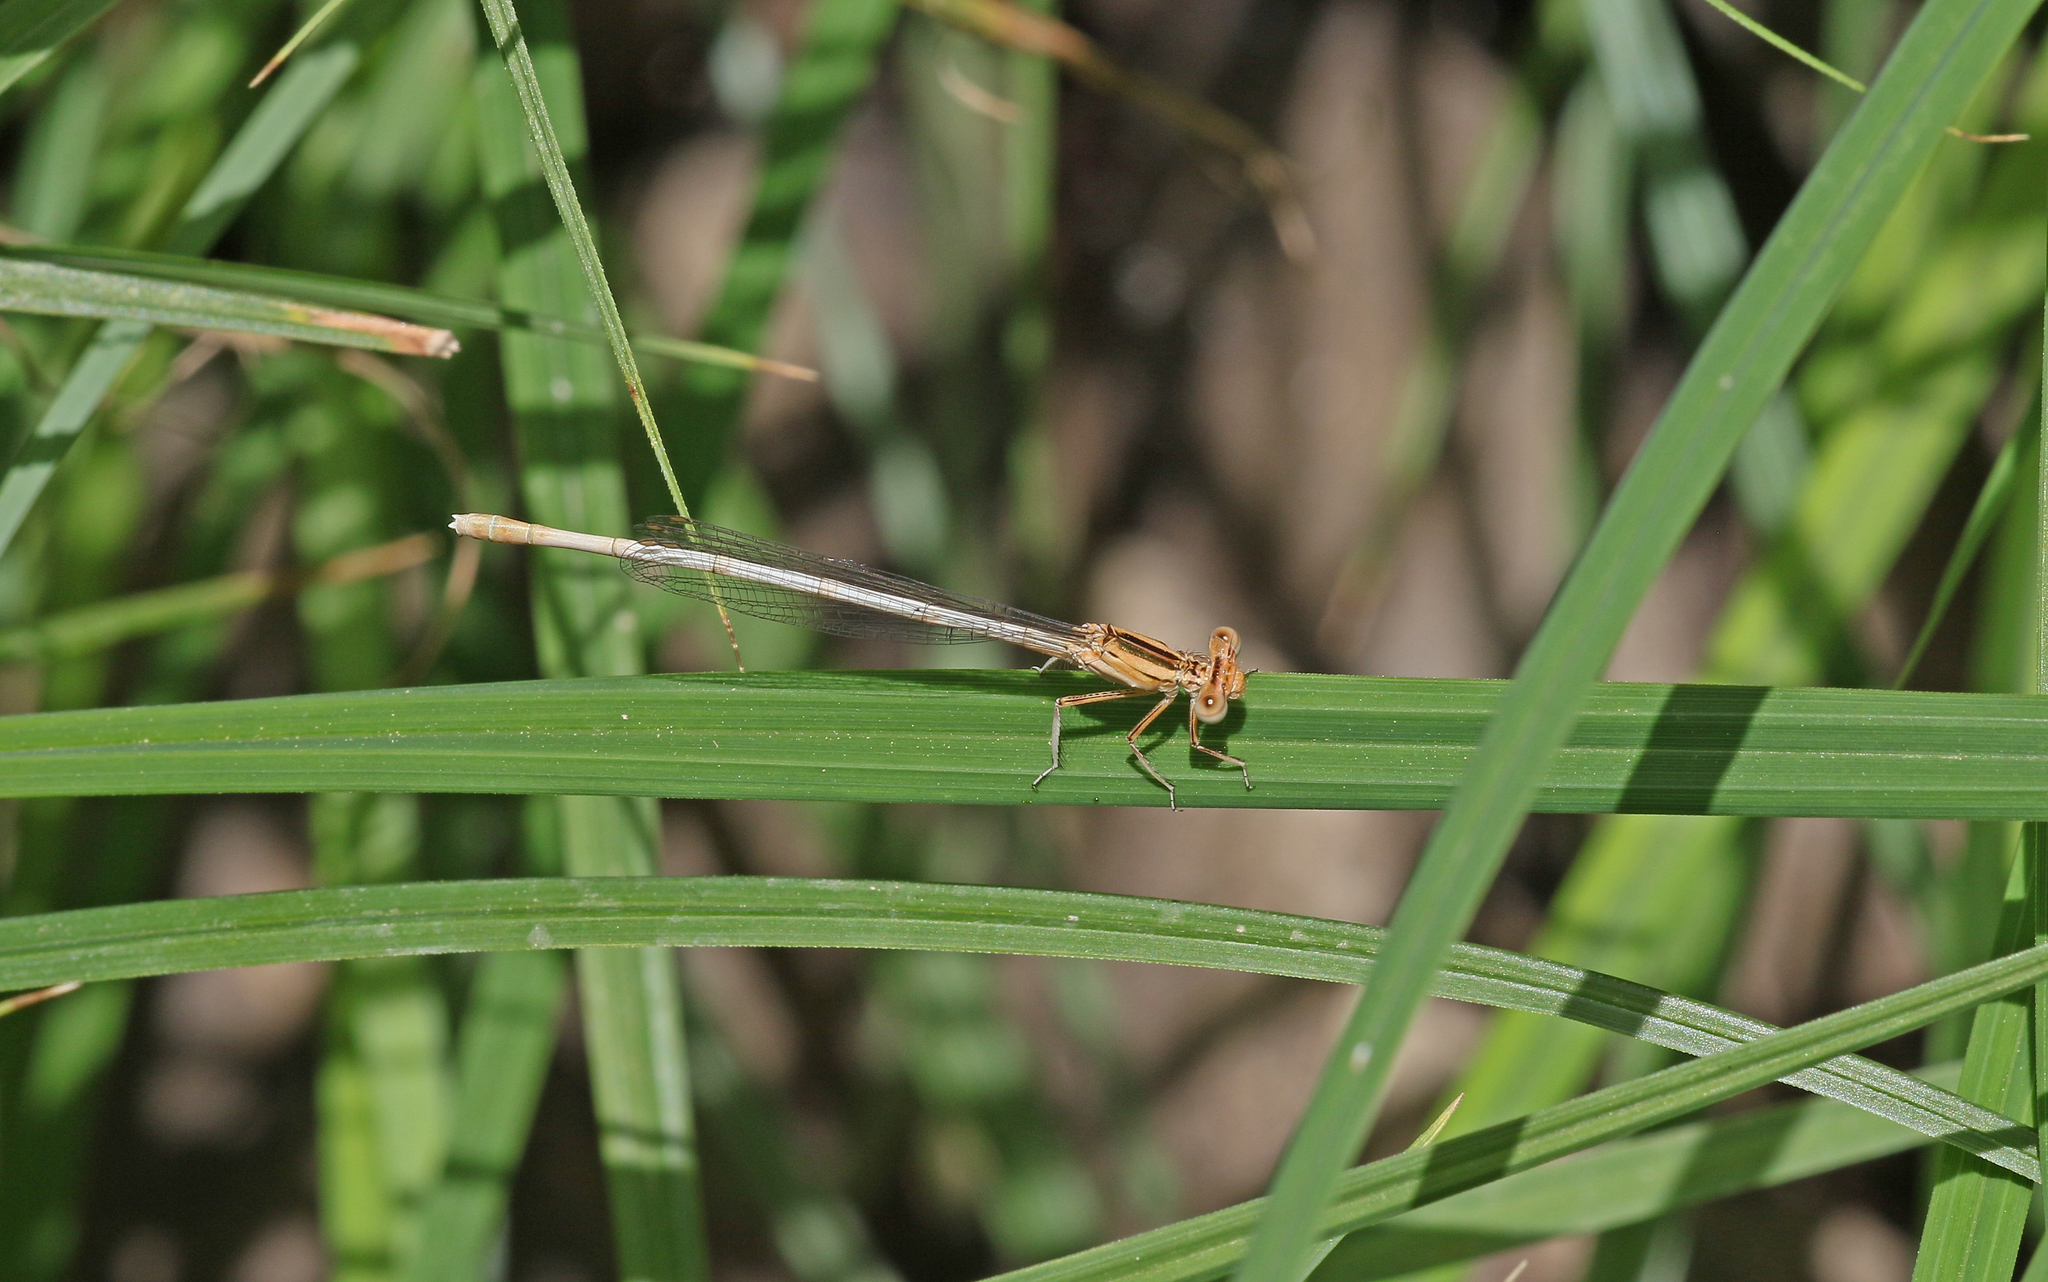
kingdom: Animalia
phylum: Arthropoda
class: Insecta
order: Odonata
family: Platycnemididae
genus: Platycnemis
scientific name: Platycnemis latipes
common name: White featherleg
